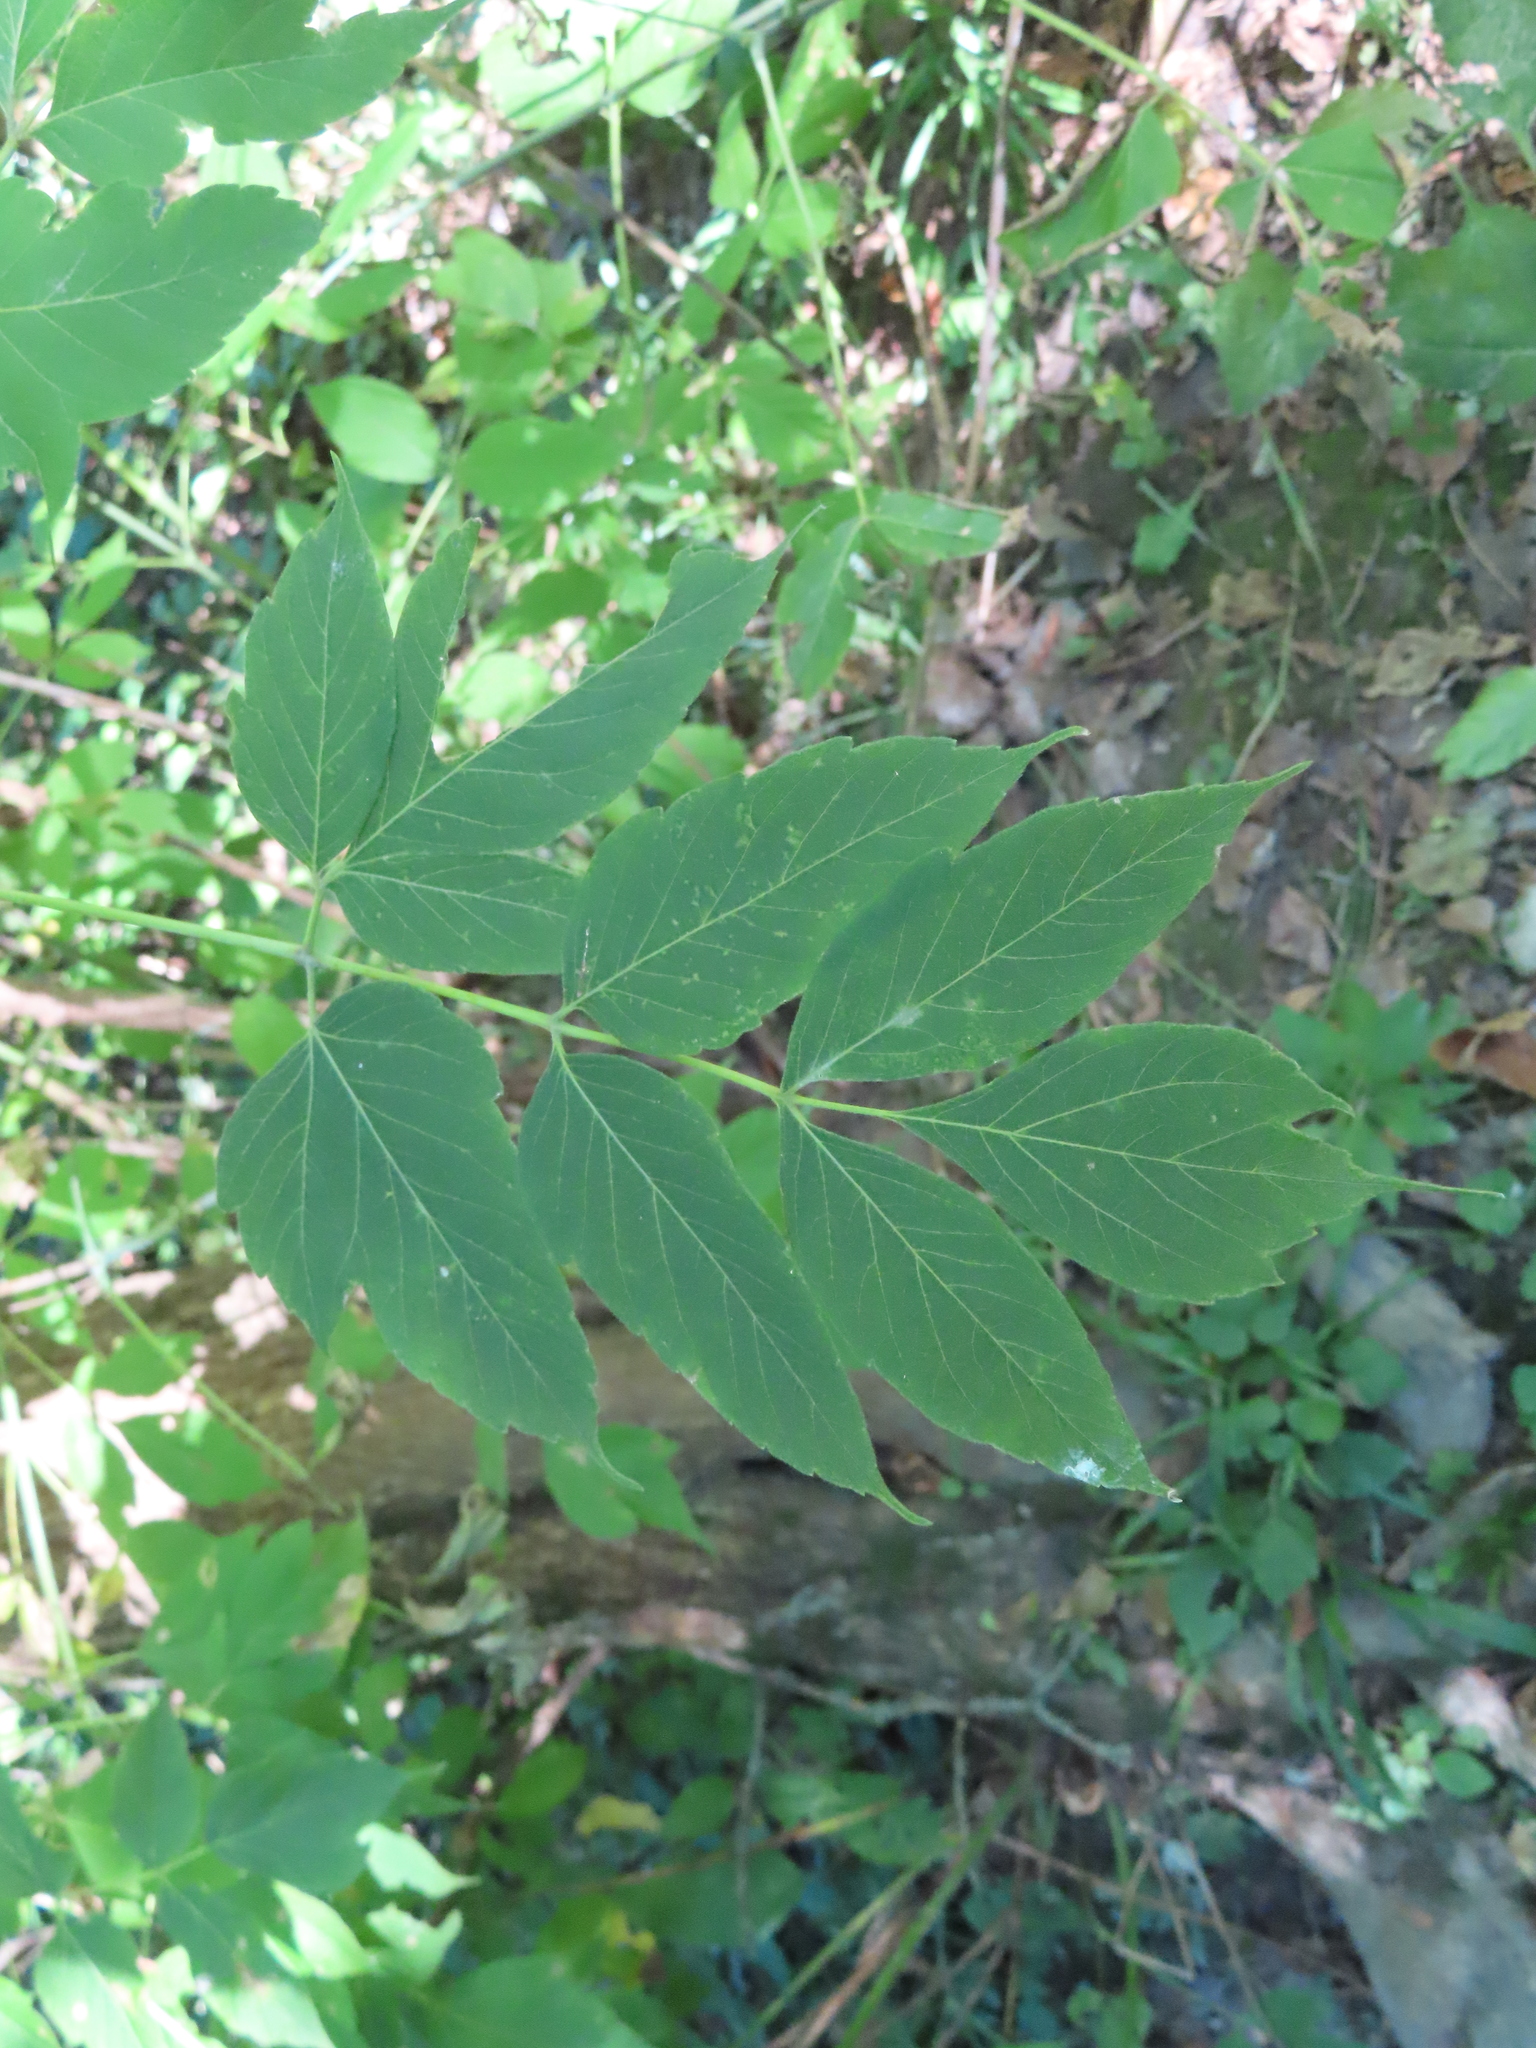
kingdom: Plantae
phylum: Tracheophyta
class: Magnoliopsida
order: Sapindales
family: Sapindaceae
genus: Acer
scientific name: Acer negundo
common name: Ashleaf maple
